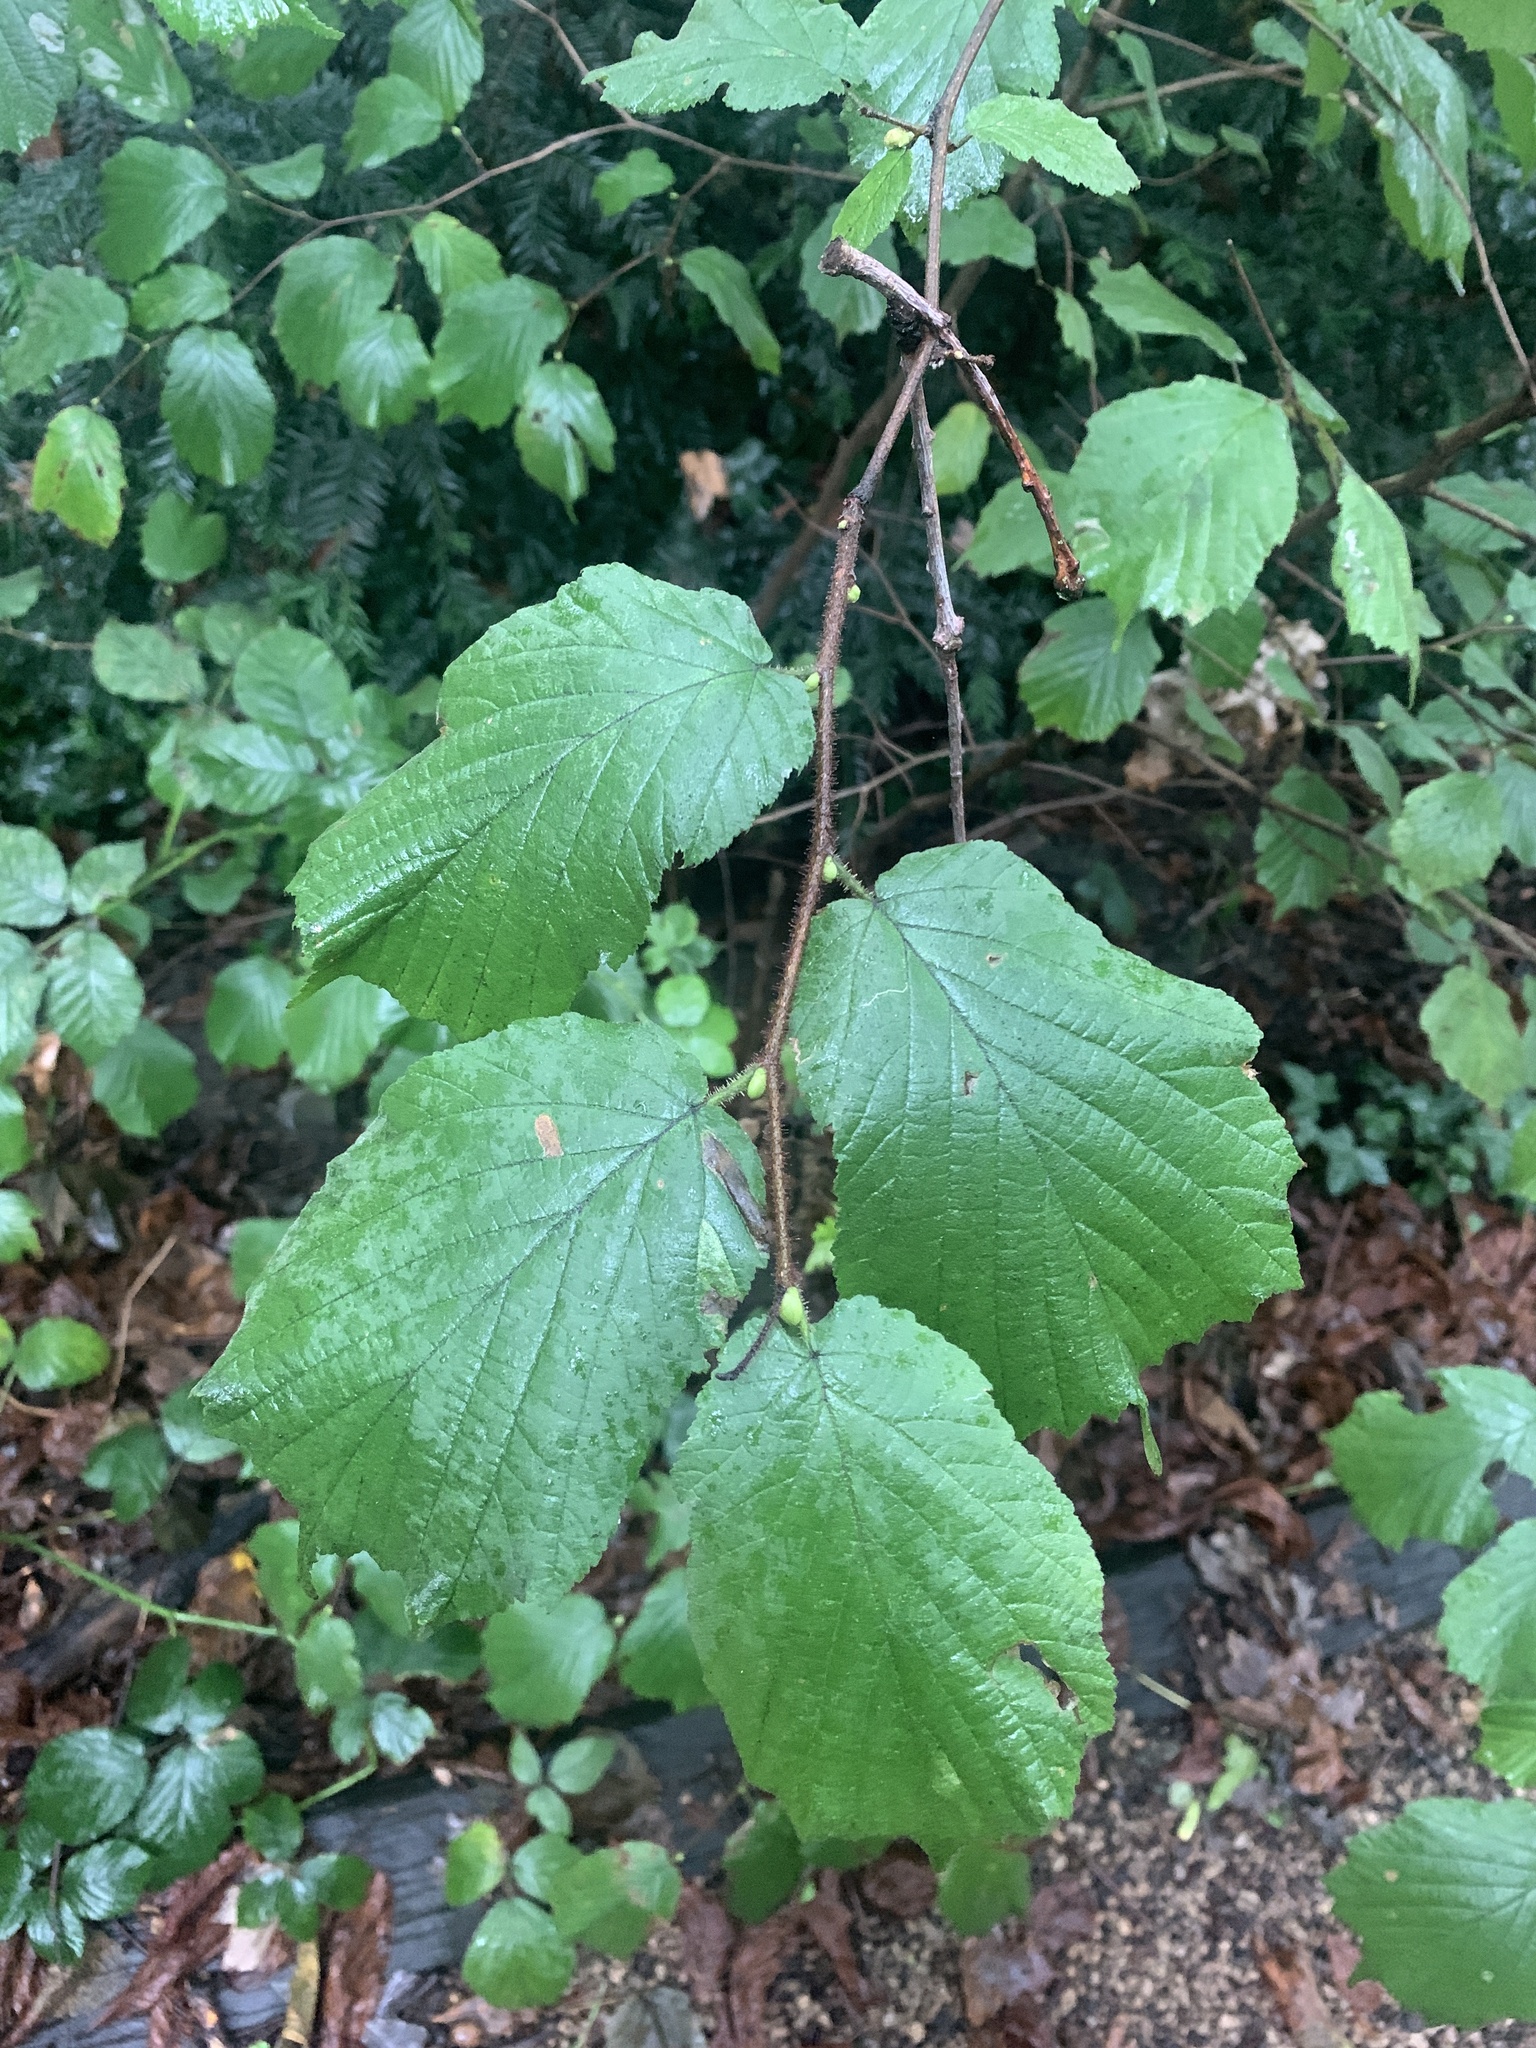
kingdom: Plantae
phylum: Tracheophyta
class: Magnoliopsida
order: Fagales
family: Betulaceae
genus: Corylus
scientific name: Corylus avellana
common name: European hazel
